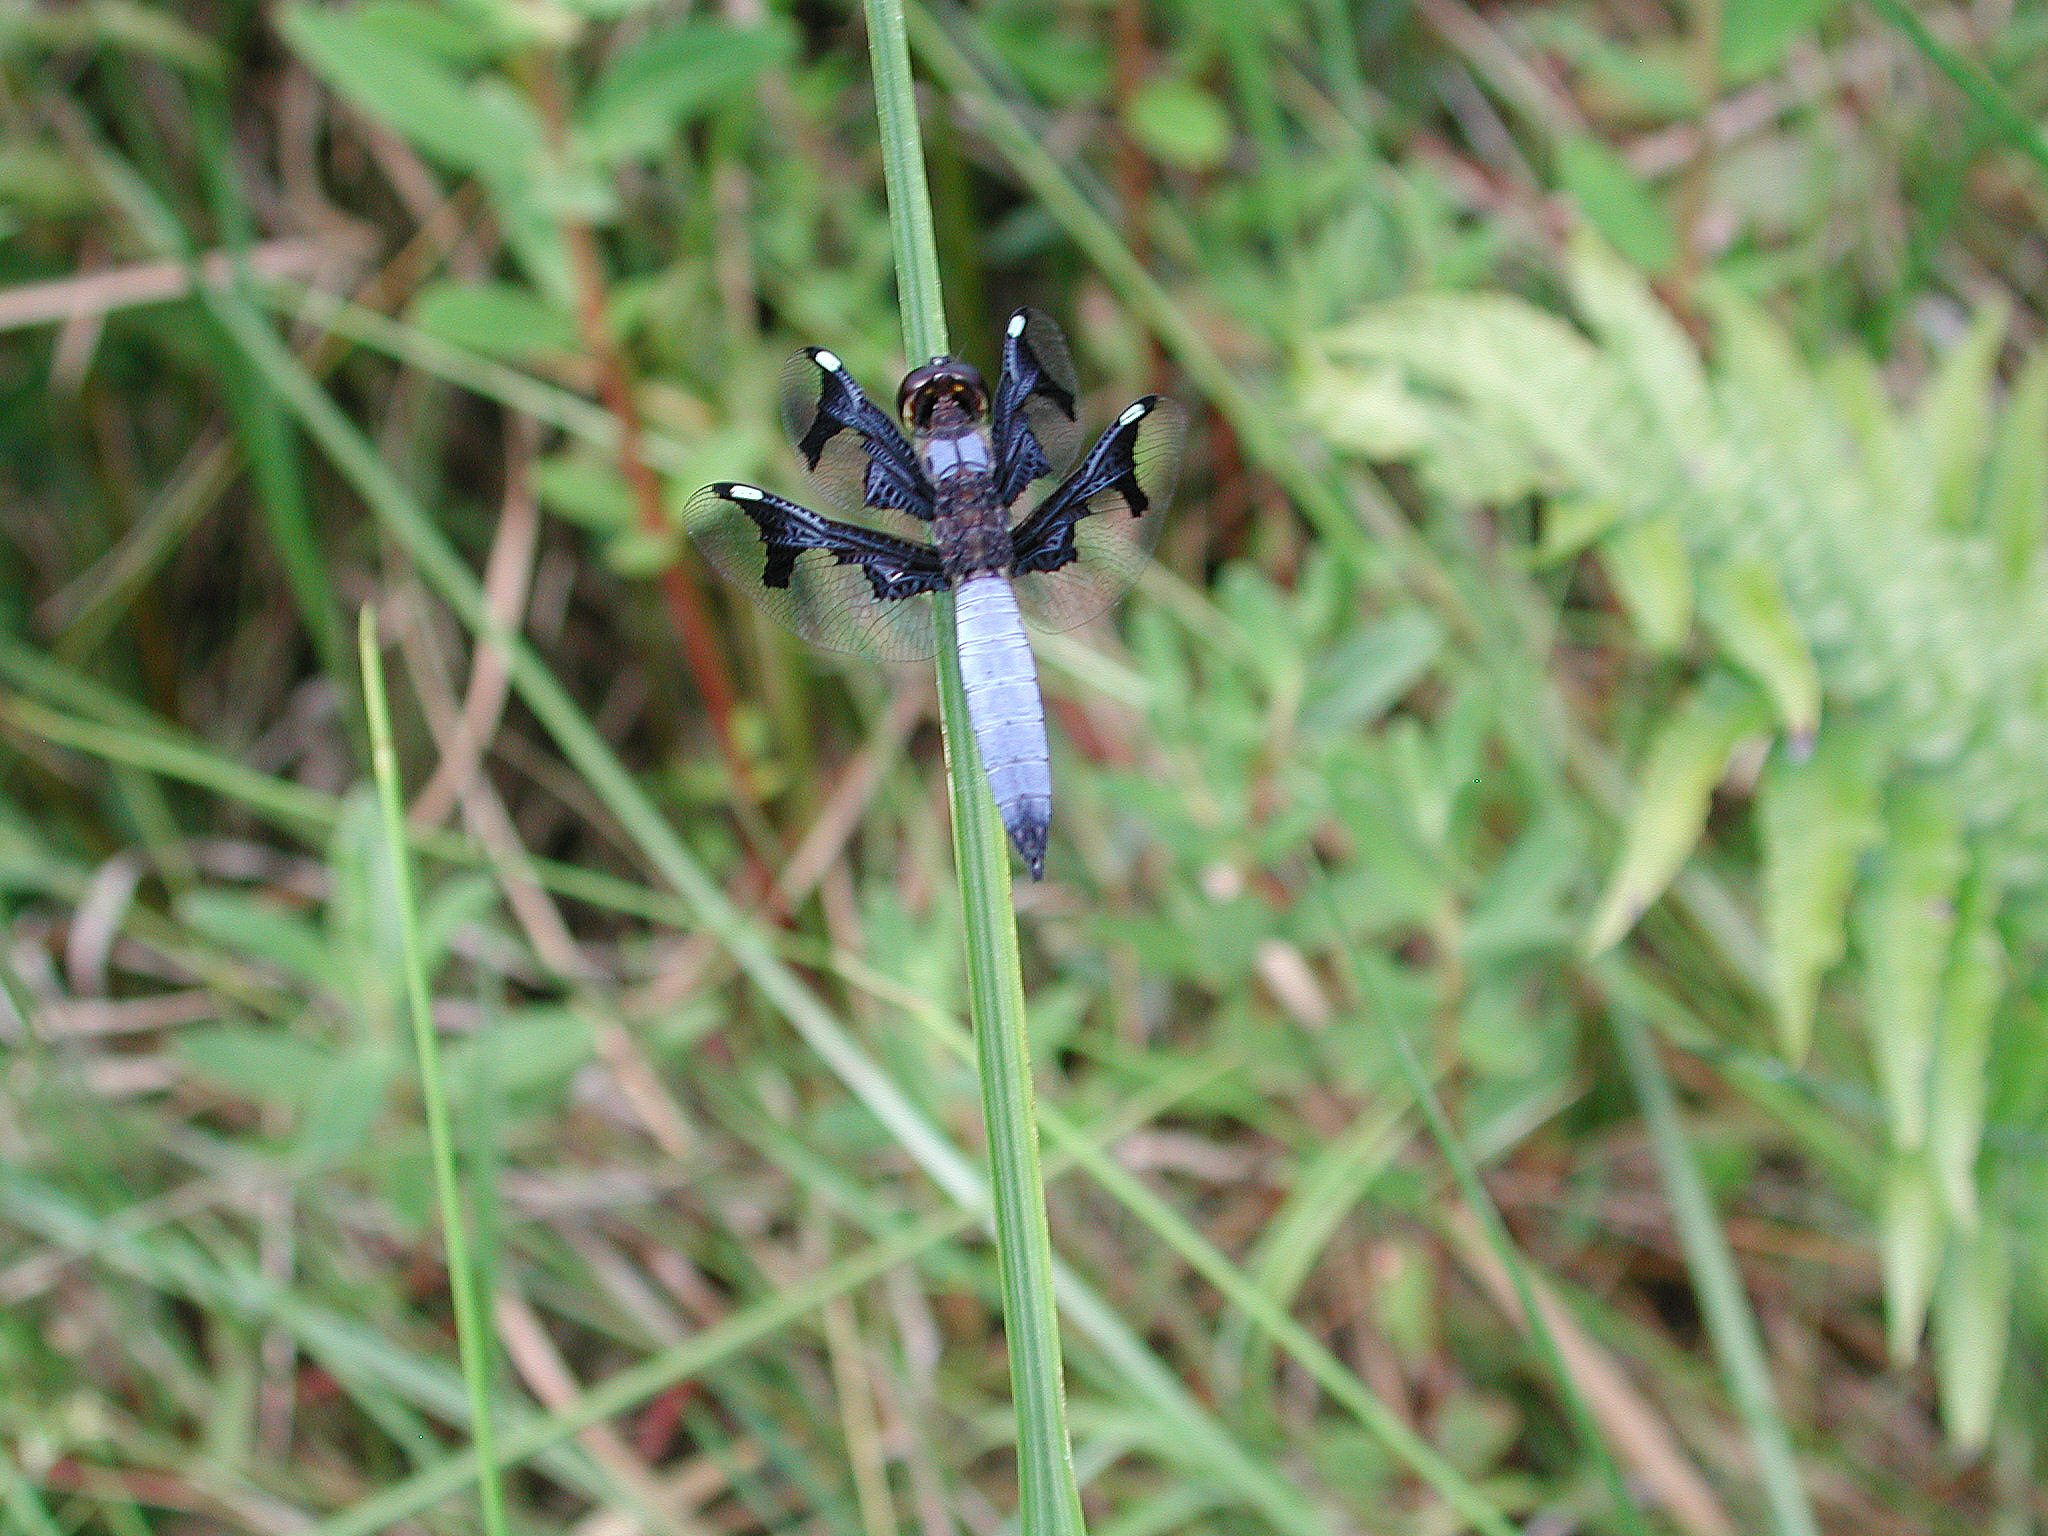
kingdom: Animalia
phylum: Arthropoda
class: Insecta
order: Odonata
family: Libellulidae
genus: Palpopleura
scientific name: Palpopleura portia
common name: Portia widow
